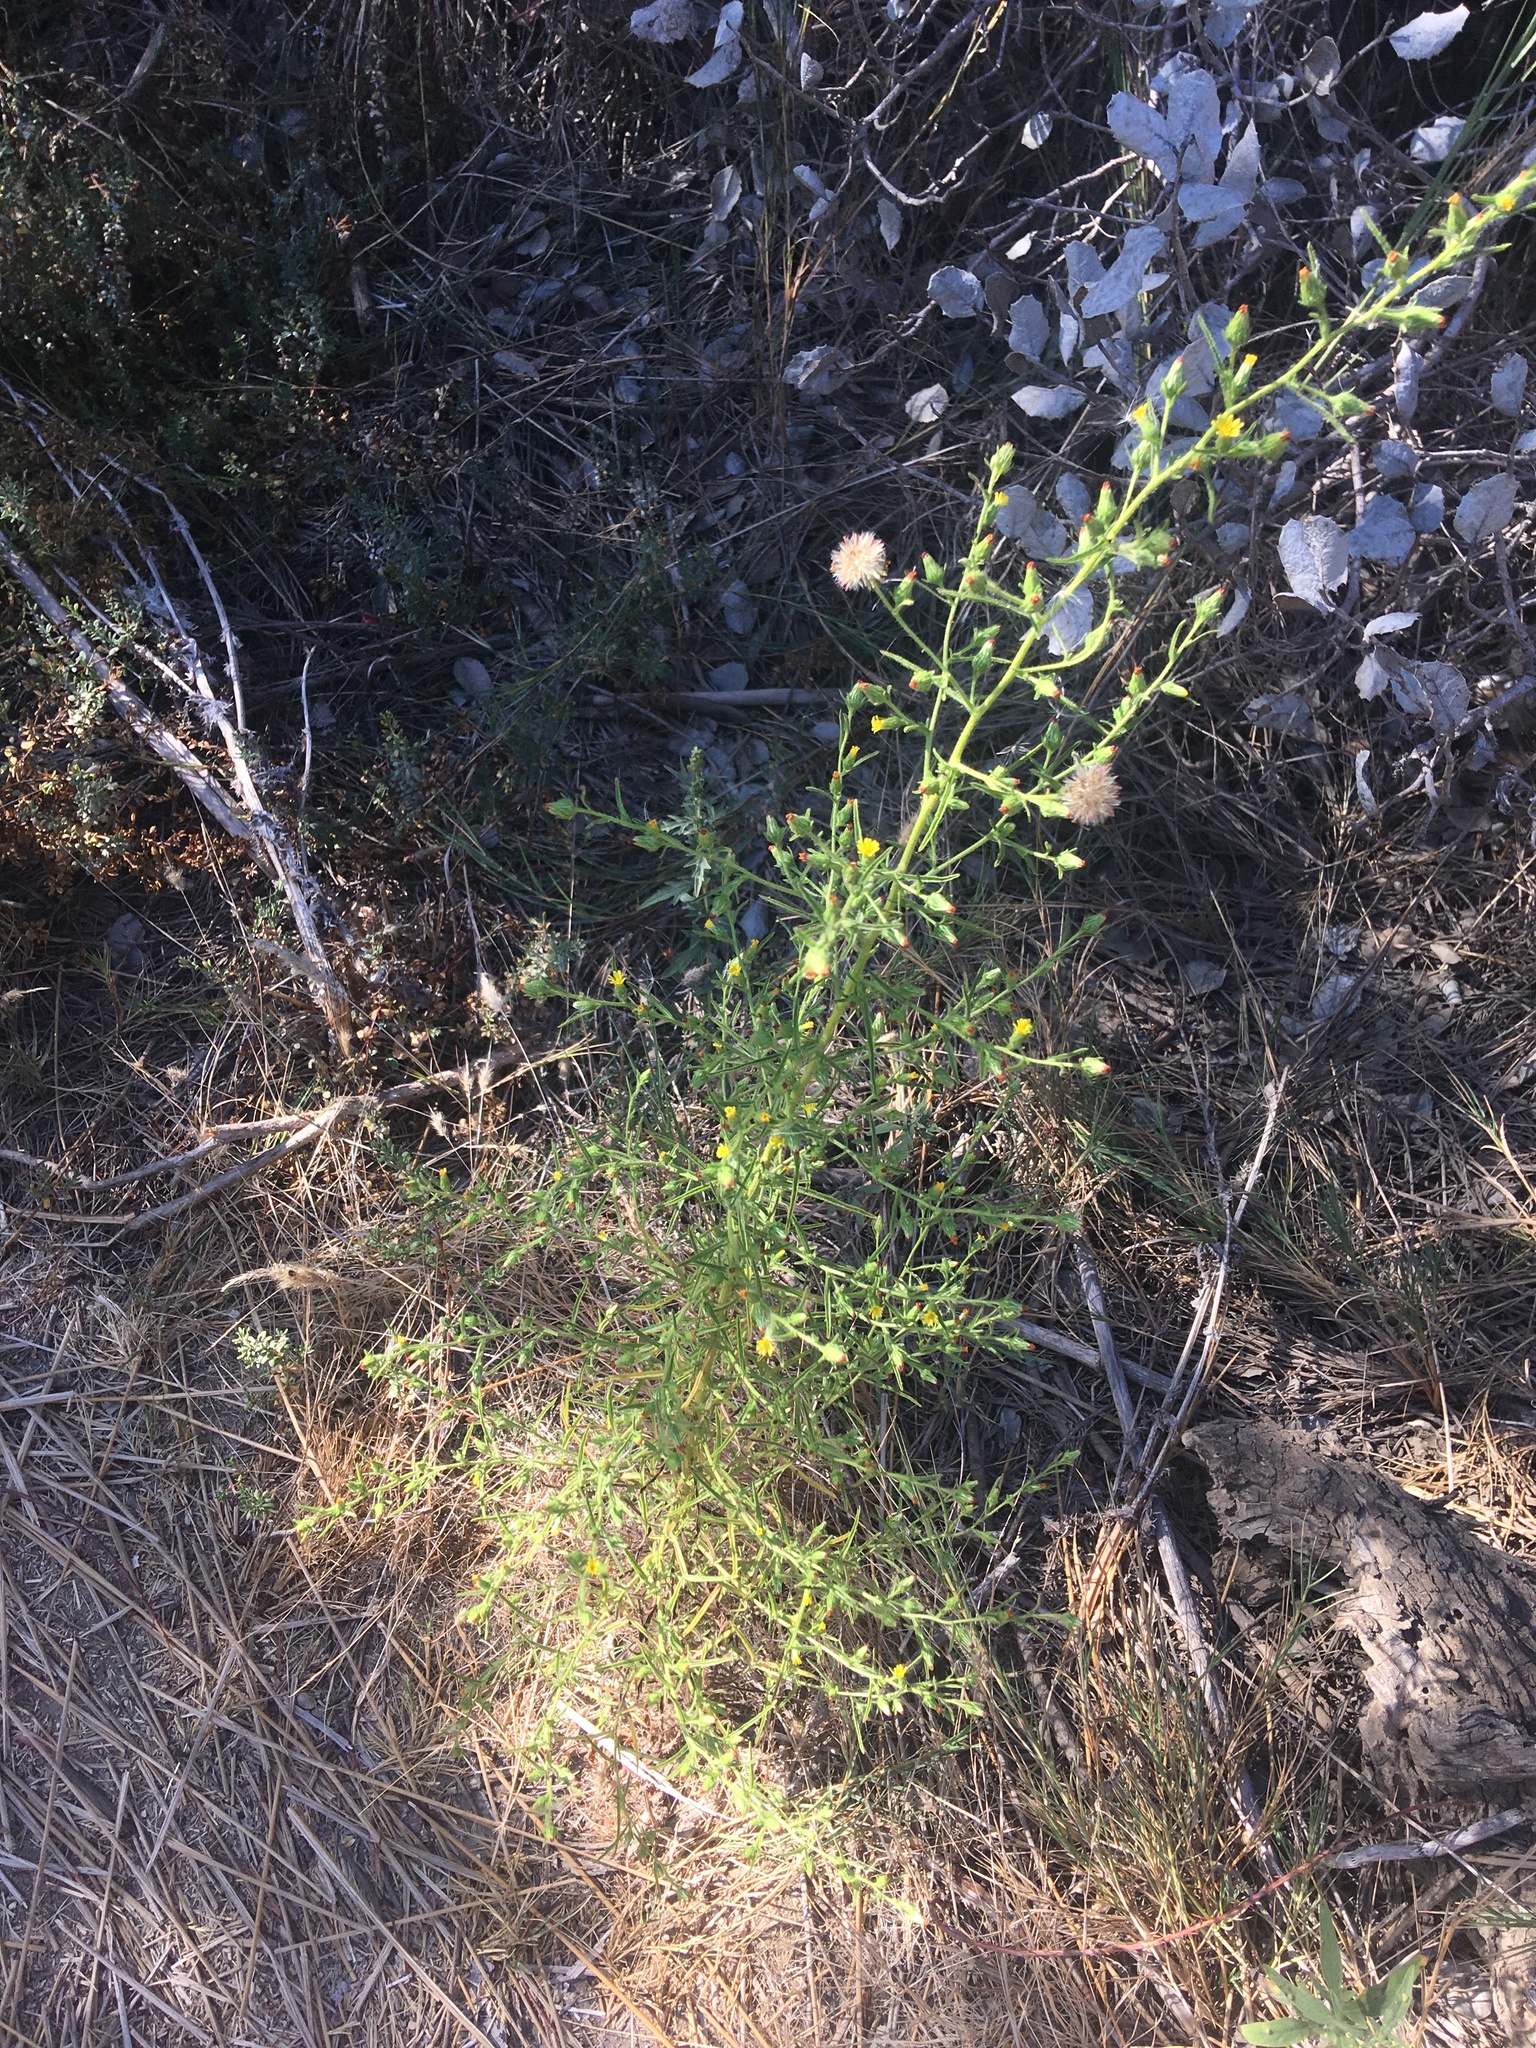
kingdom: Plantae
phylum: Tracheophyta
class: Magnoliopsida
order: Asterales
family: Asteraceae
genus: Dittrichia
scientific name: Dittrichia graveolens
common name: Stinking fleabane
